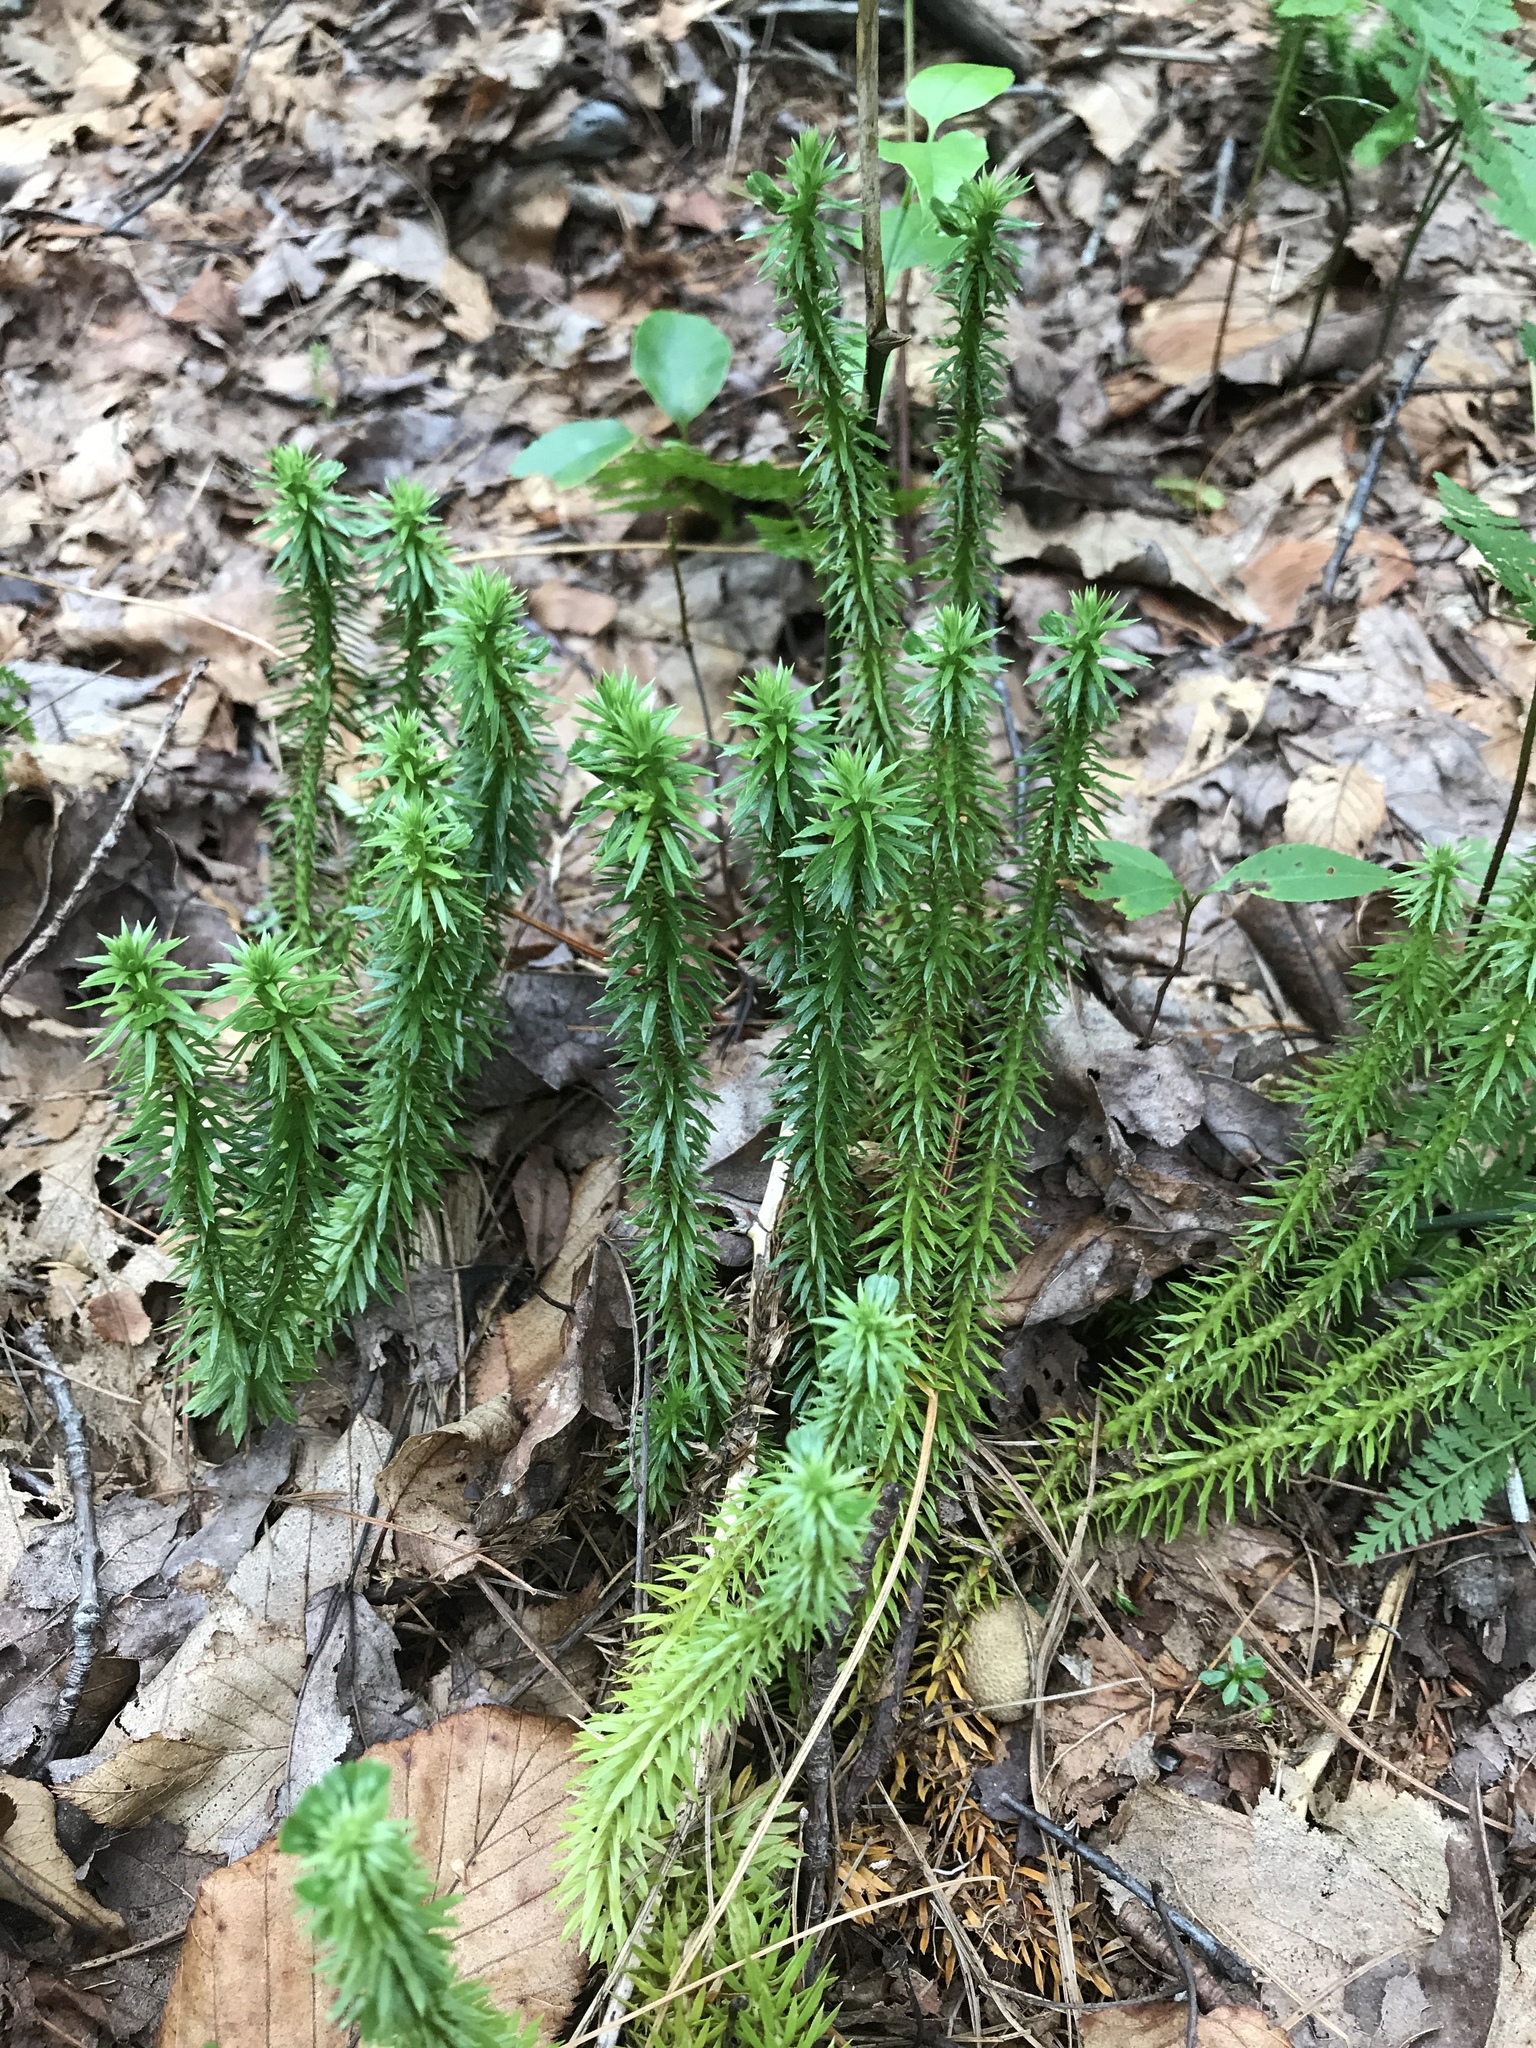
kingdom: Plantae
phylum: Tracheophyta
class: Lycopodiopsida
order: Lycopodiales
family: Lycopodiaceae
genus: Huperzia
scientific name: Huperzia lucidula
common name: Shining clubmoss
